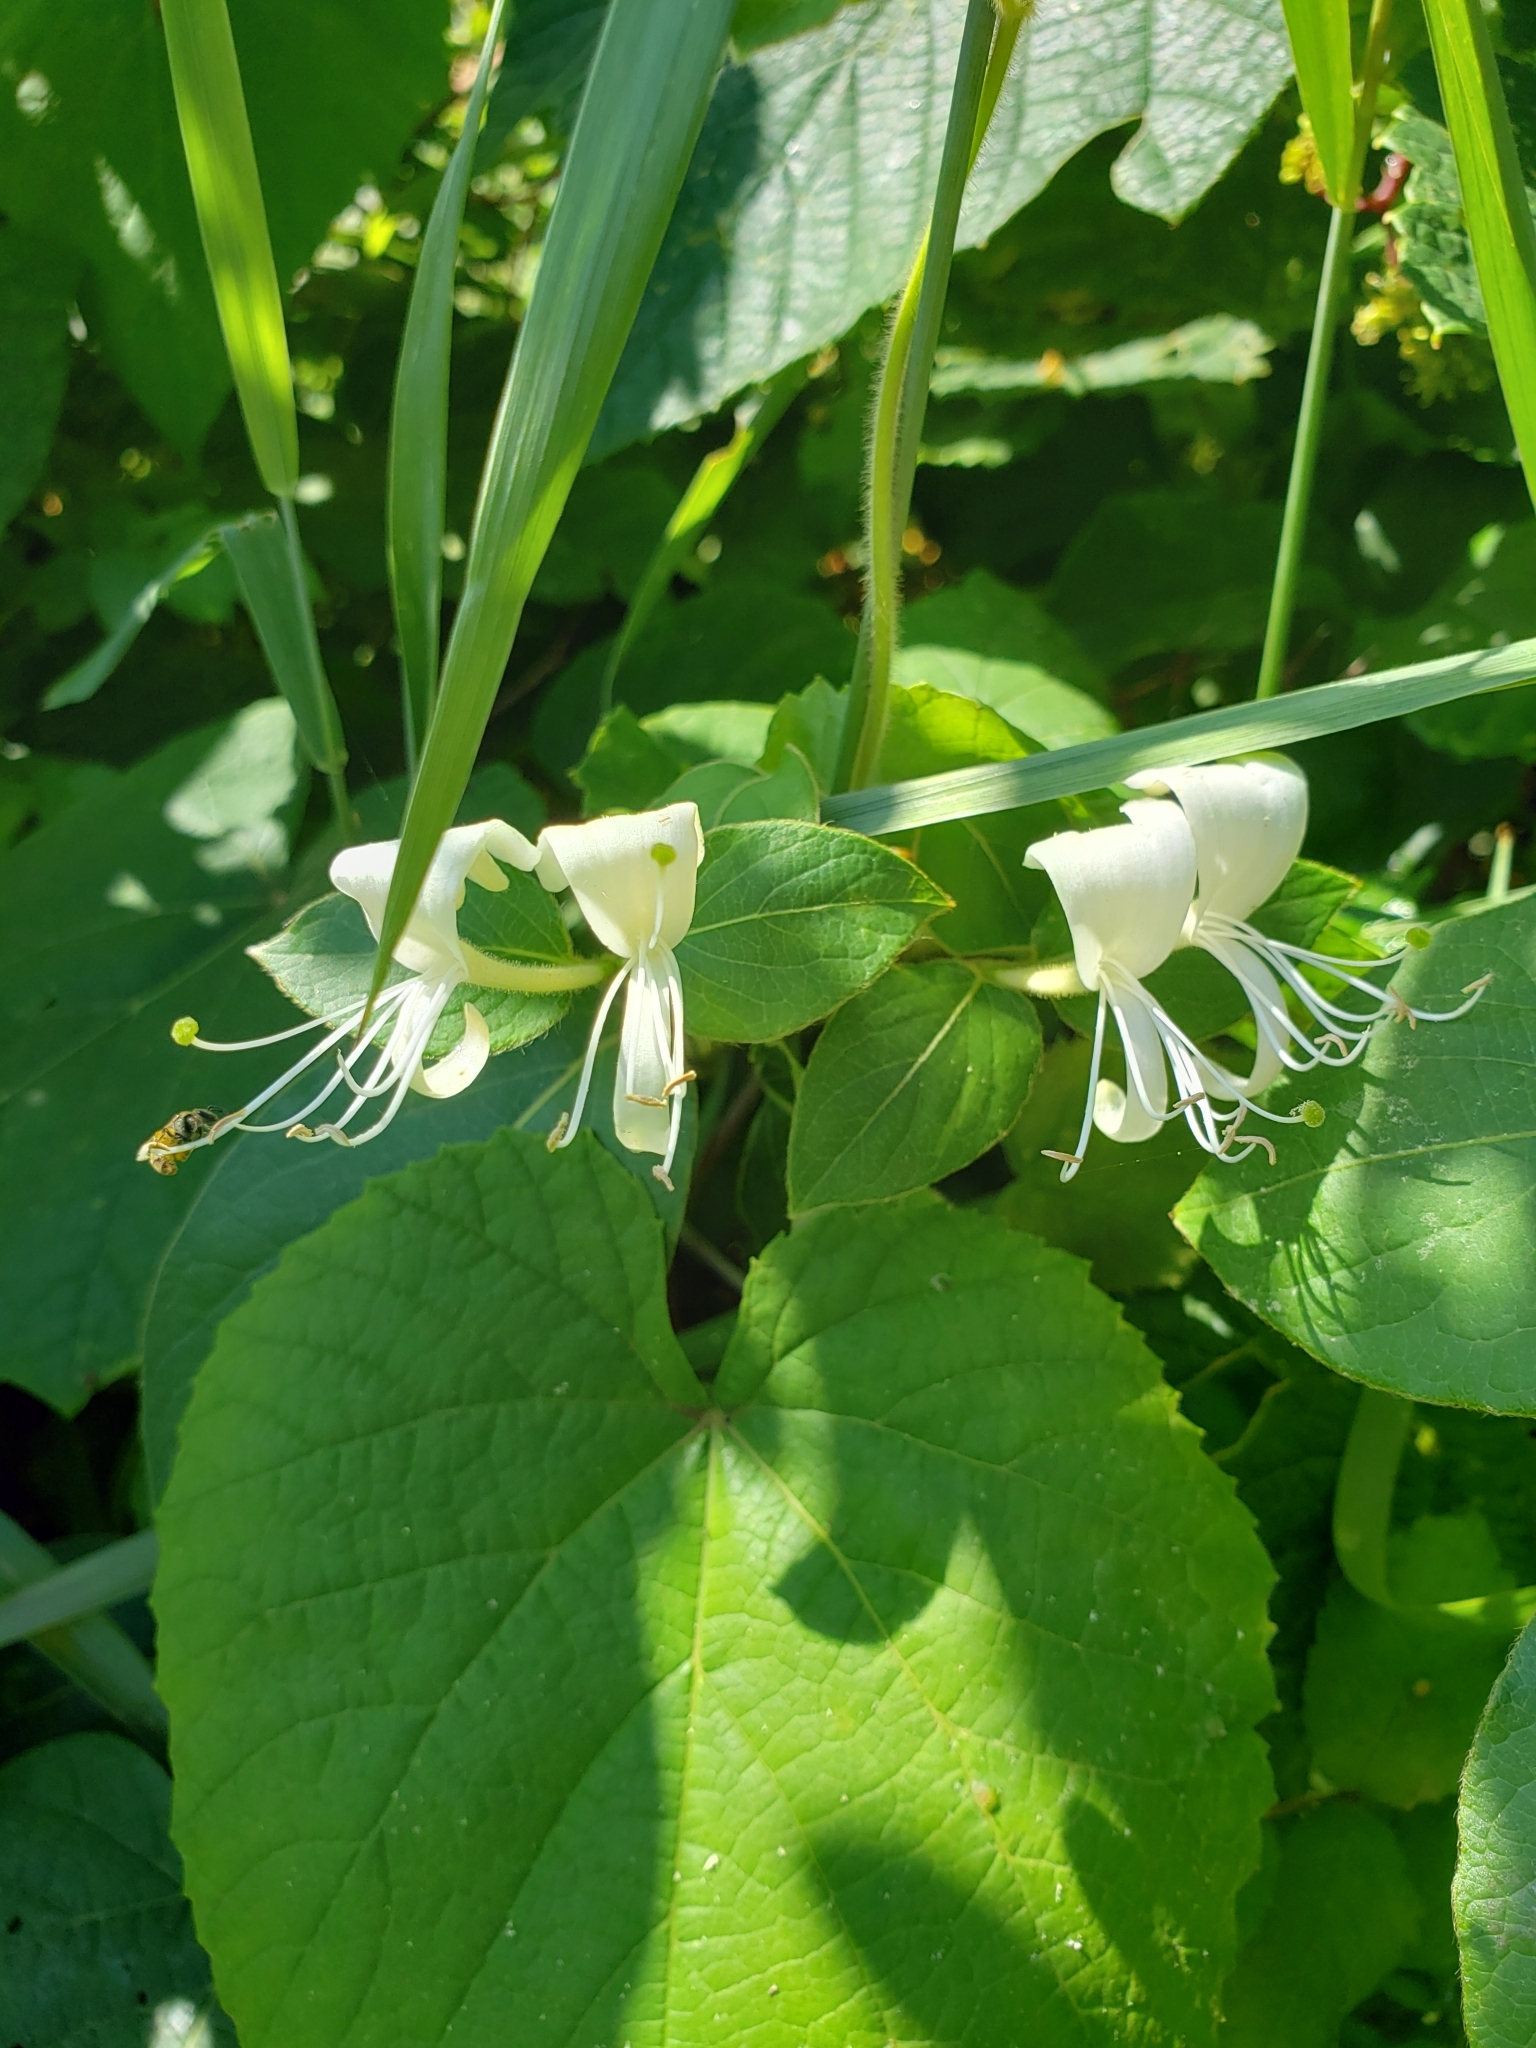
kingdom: Plantae
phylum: Tracheophyta
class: Magnoliopsida
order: Dipsacales
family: Caprifoliaceae
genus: Lonicera
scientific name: Lonicera japonica
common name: Japanese honeysuckle
